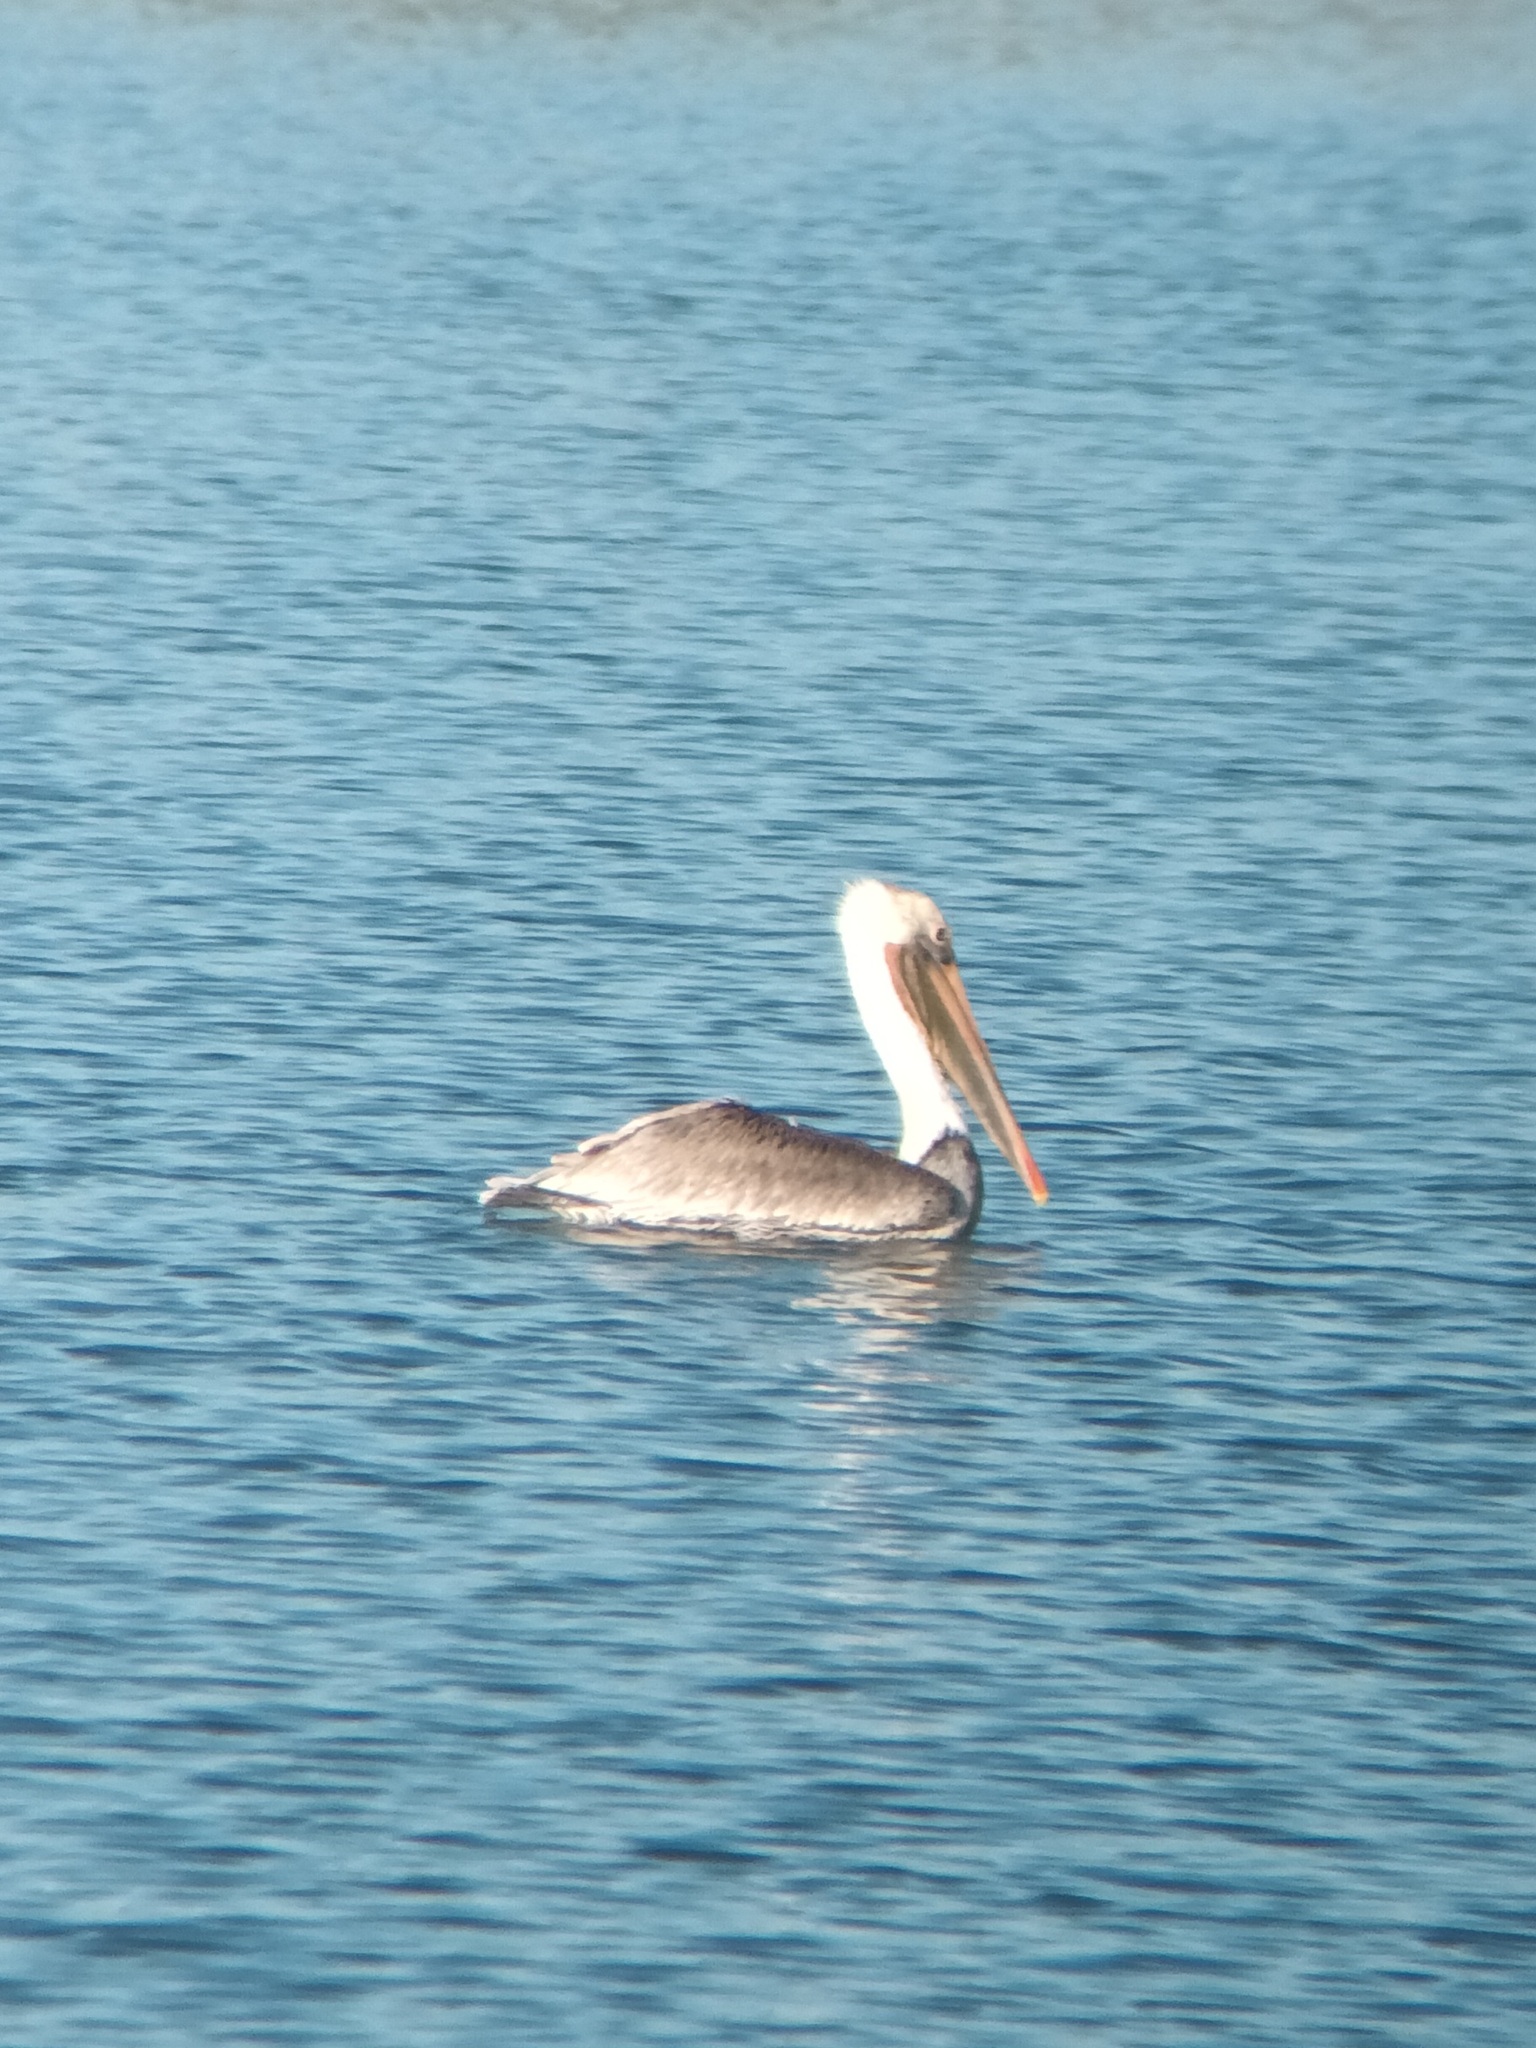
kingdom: Animalia
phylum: Chordata
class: Aves
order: Pelecaniformes
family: Pelecanidae
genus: Pelecanus
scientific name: Pelecanus occidentalis
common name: Brown pelican
